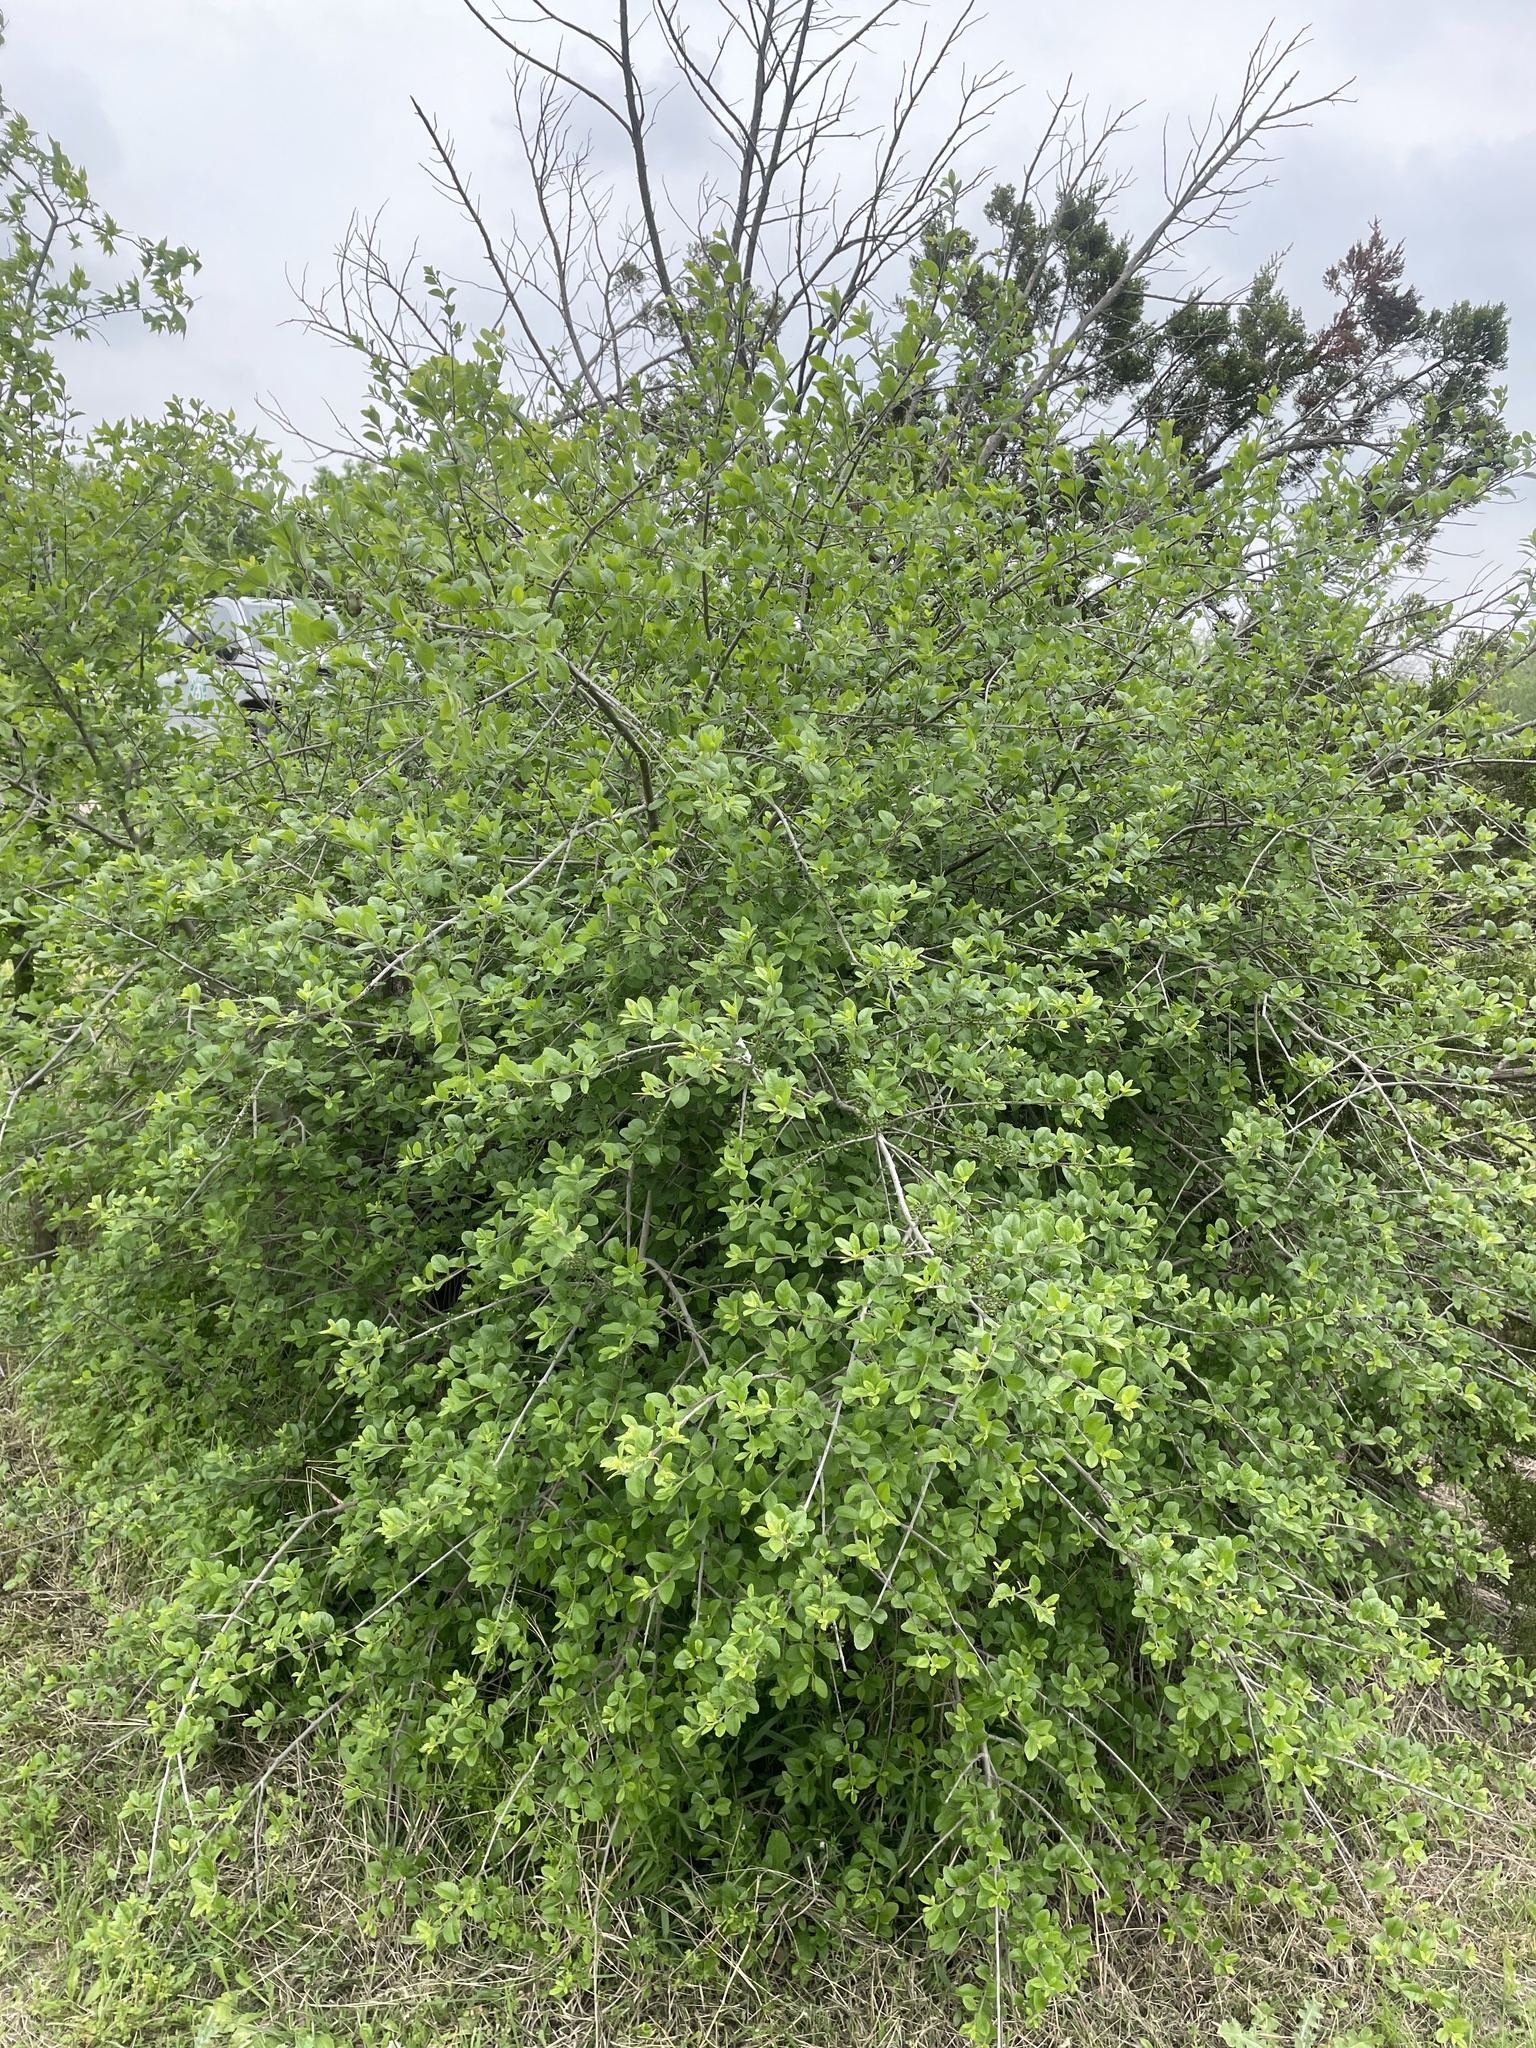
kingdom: Plantae
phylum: Tracheophyta
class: Magnoliopsida
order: Lamiales
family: Oleaceae
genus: Forestiera
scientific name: Forestiera pubescens
